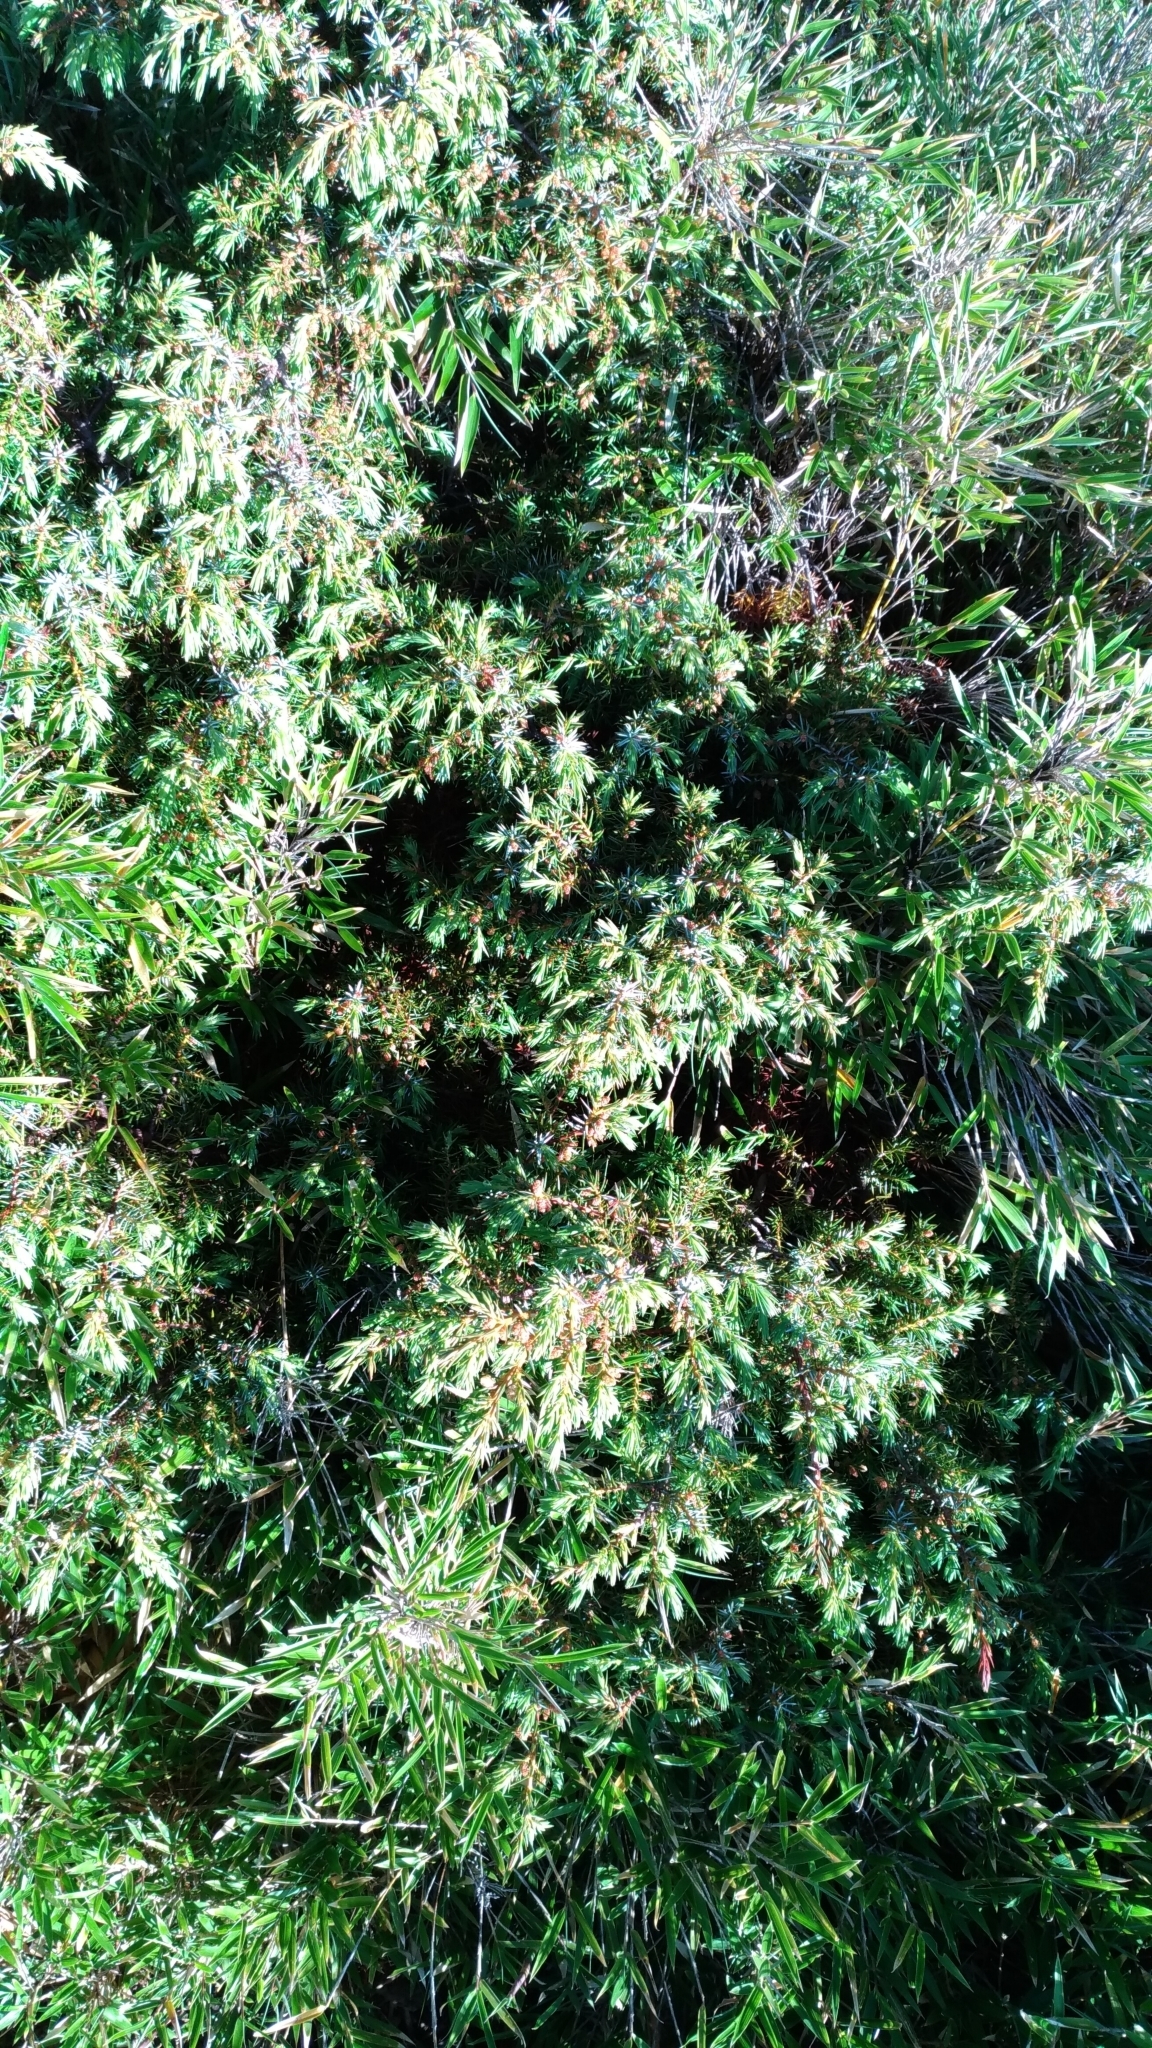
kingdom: Plantae
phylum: Tracheophyta
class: Pinopsida
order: Pinales
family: Cupressaceae
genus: Juniperus
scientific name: Juniperus formosana
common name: Formosan juniper
